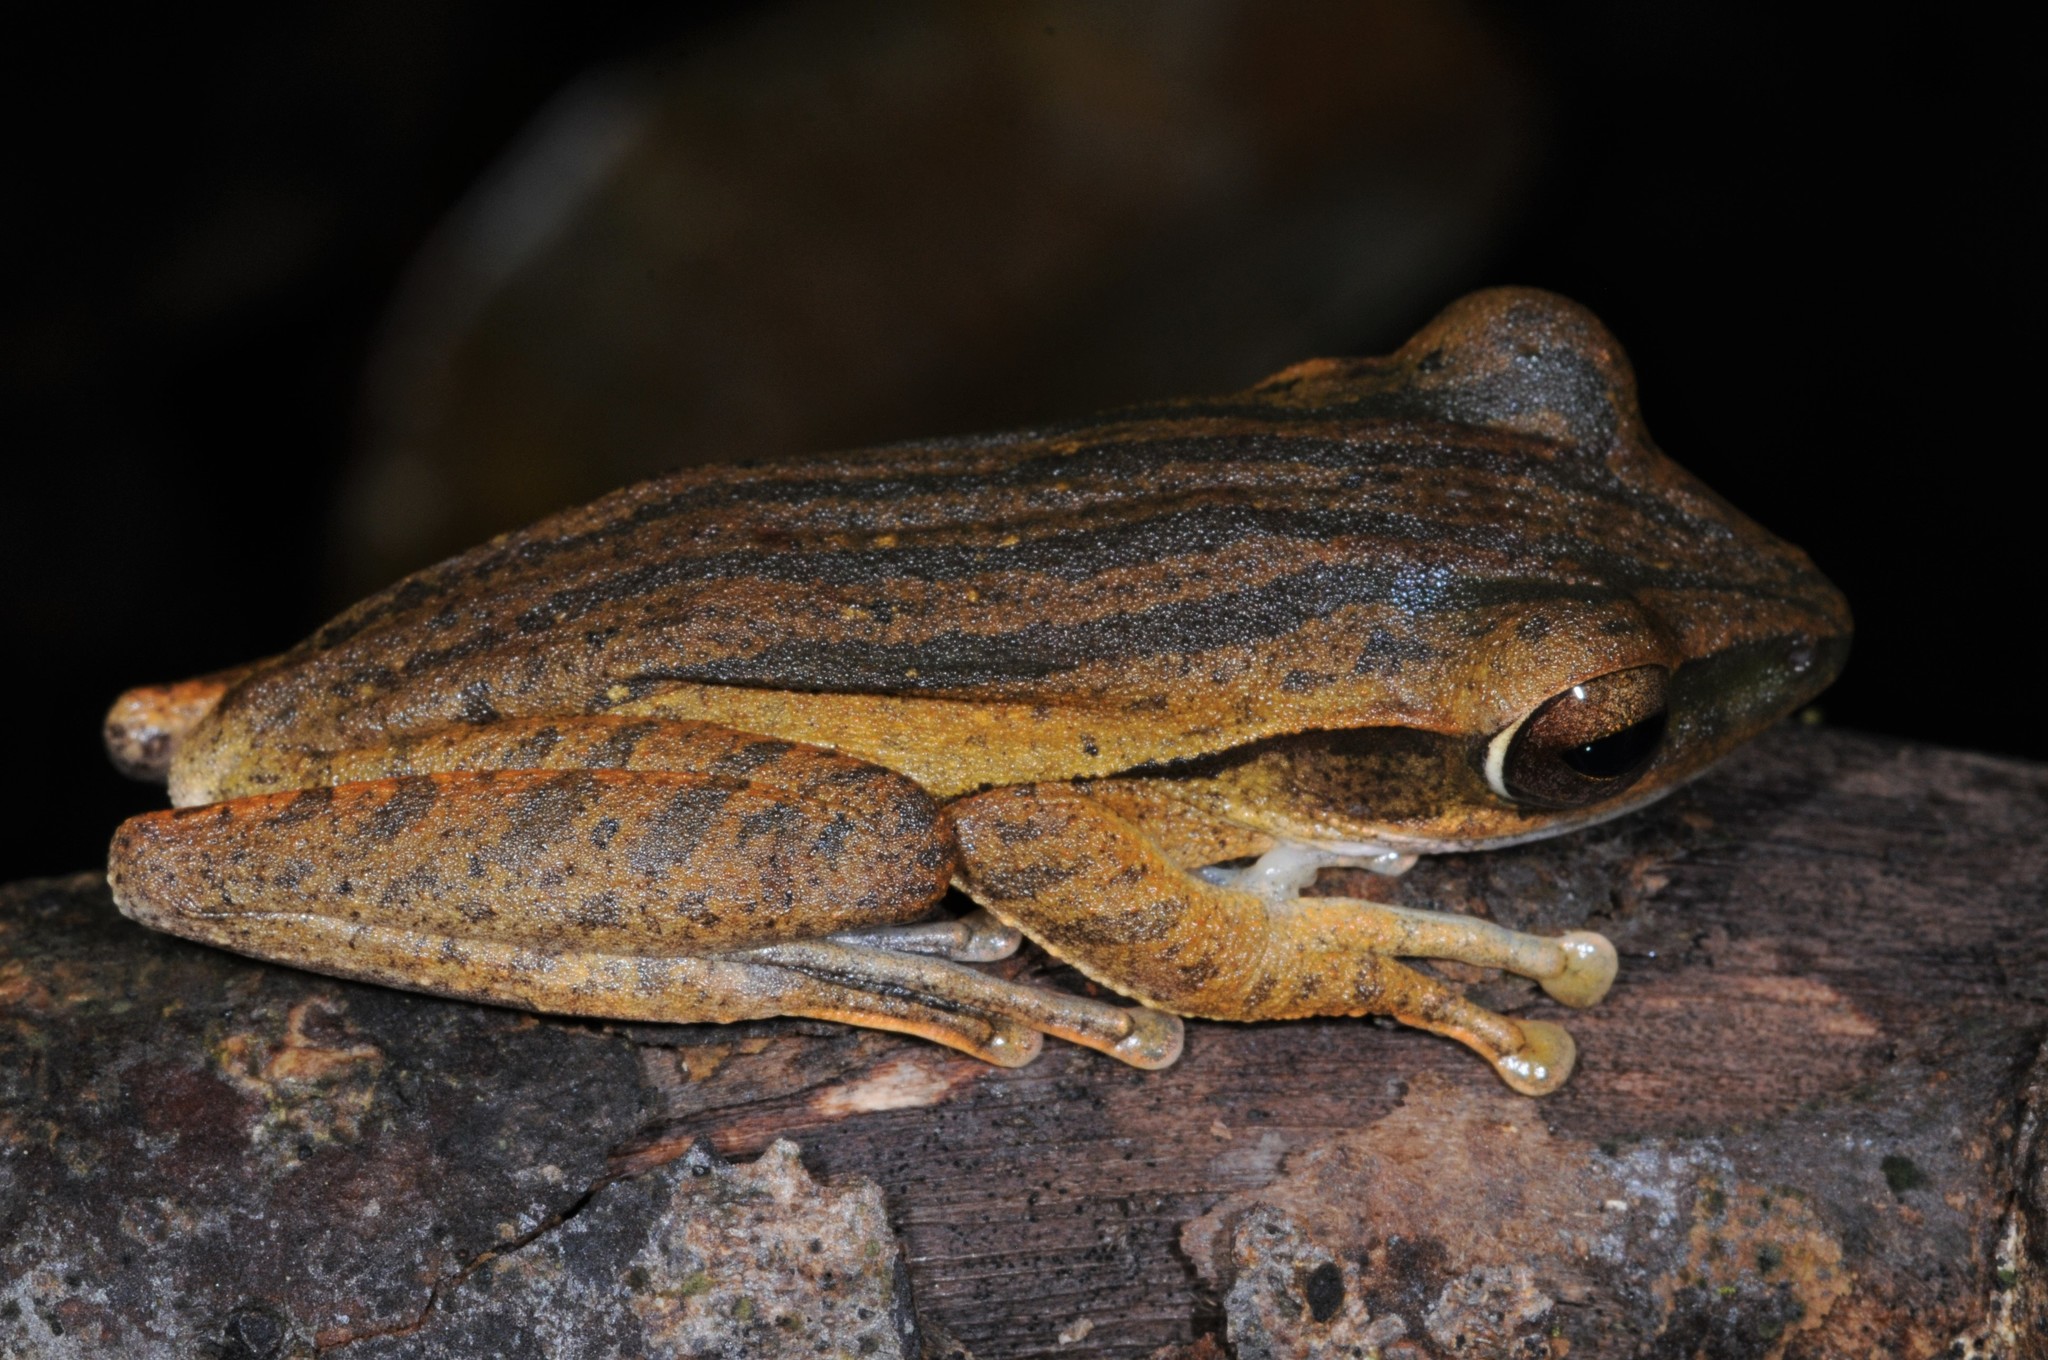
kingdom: Animalia
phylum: Chordata
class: Amphibia
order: Anura
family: Rhacophoridae
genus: Polypedates
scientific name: Polypedates leucomystax
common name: Common tree frog/four-lined tree frog
